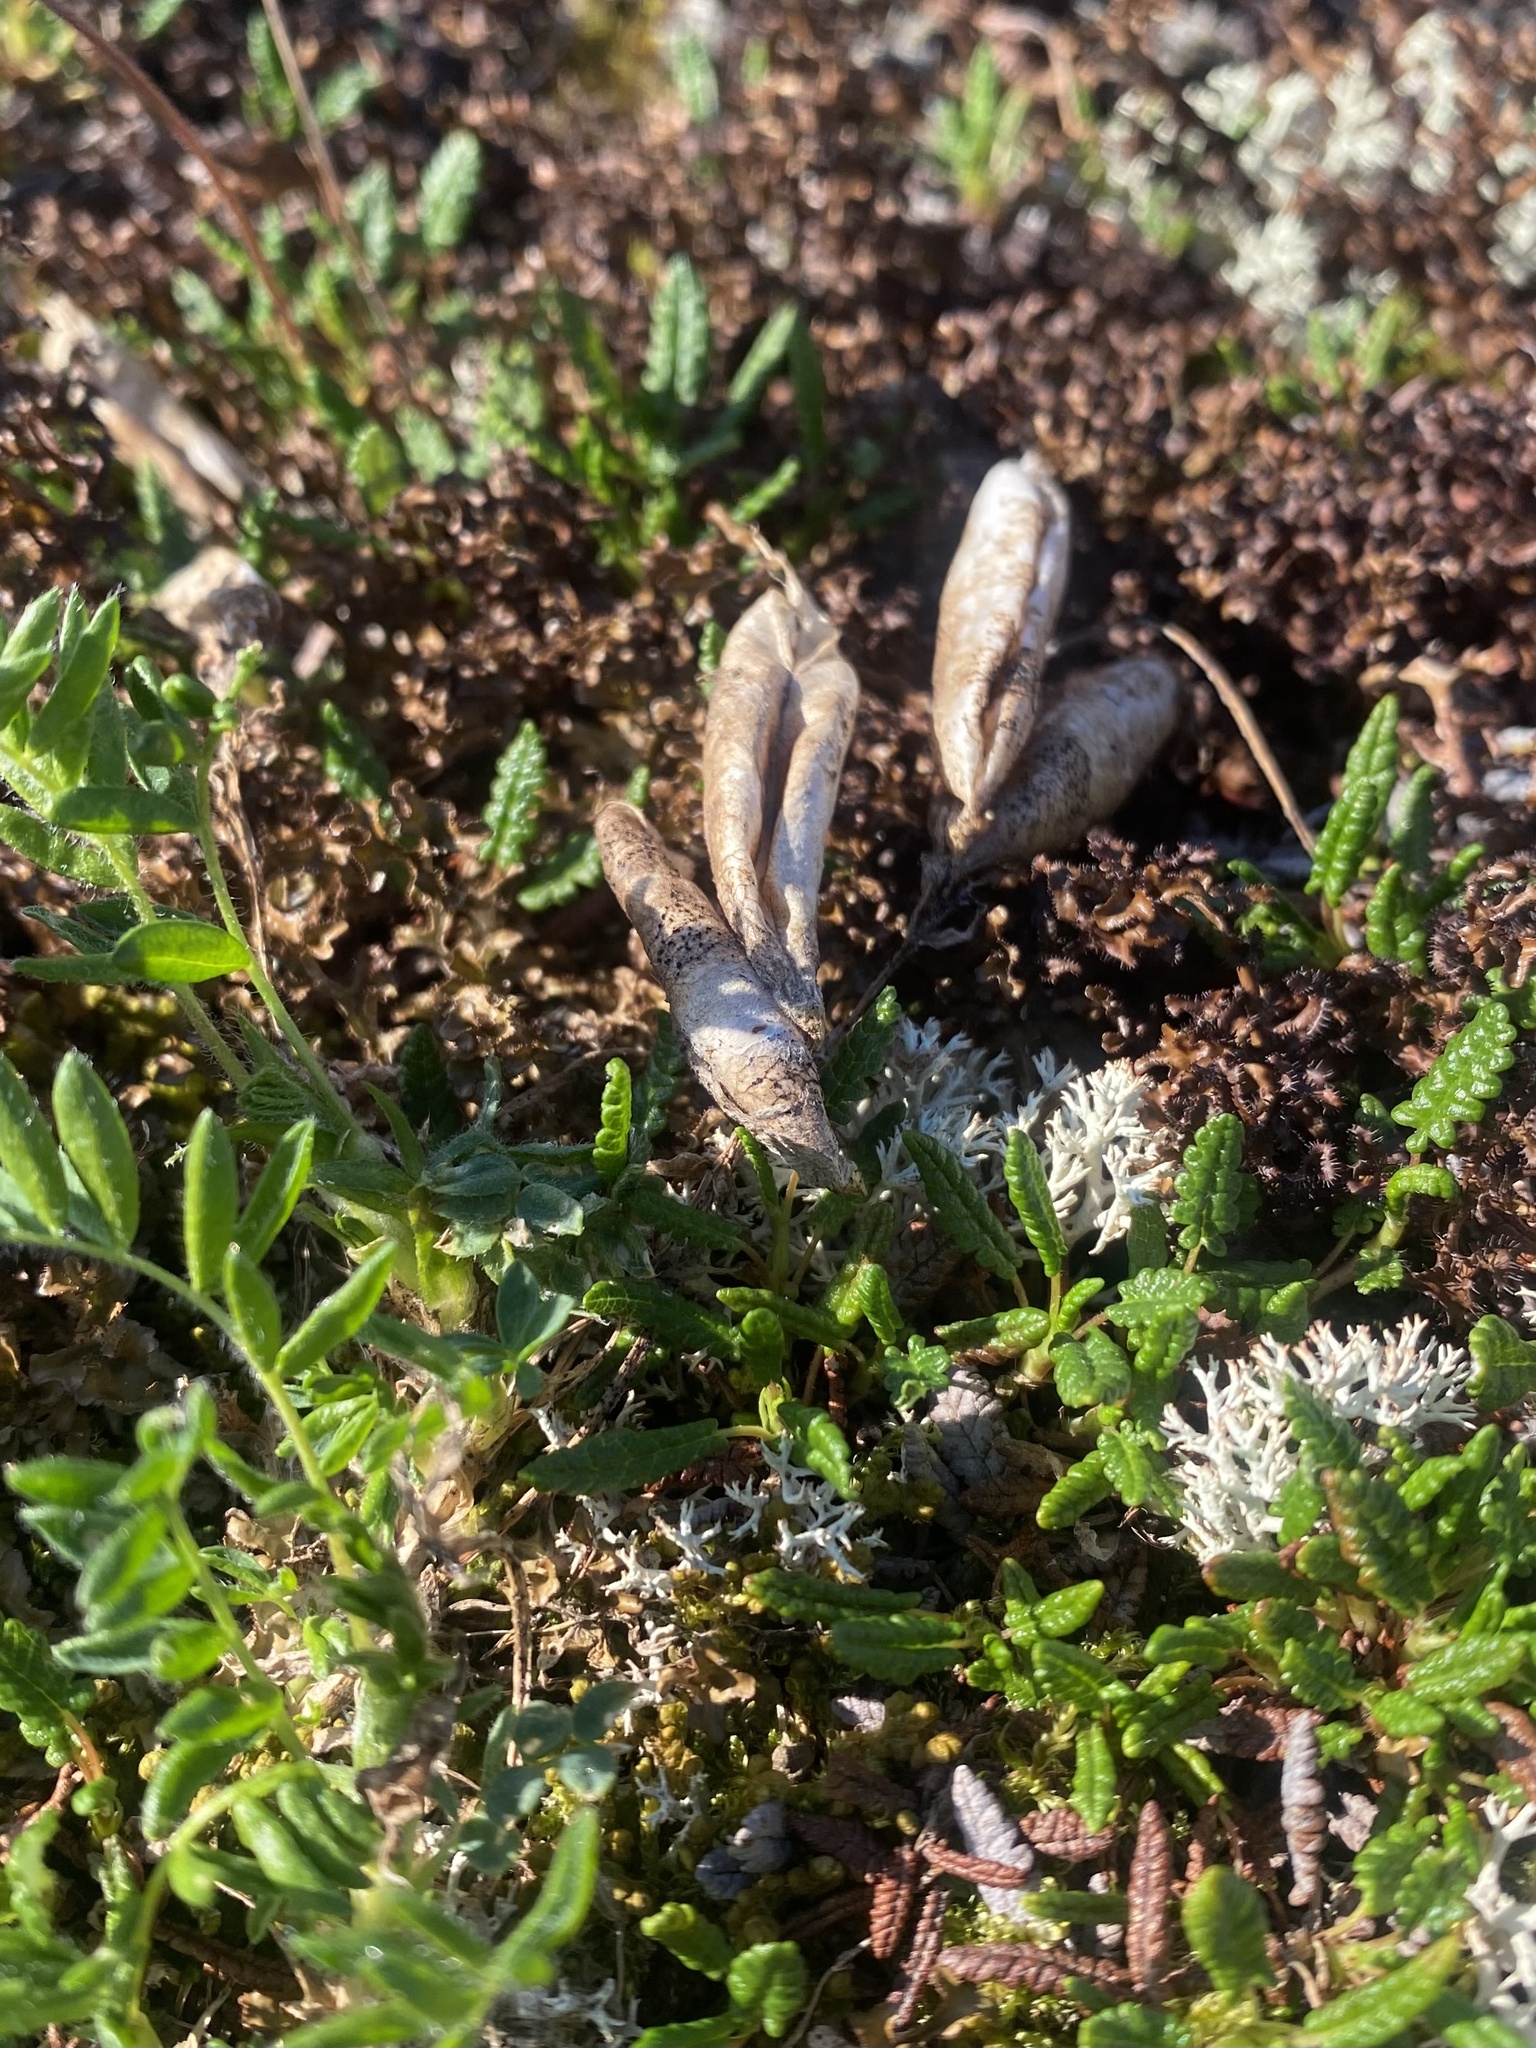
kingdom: Plantae
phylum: Tracheophyta
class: Magnoliopsida
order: Fabales
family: Fabaceae
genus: Oxytropis
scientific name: Oxytropis nigrescens
